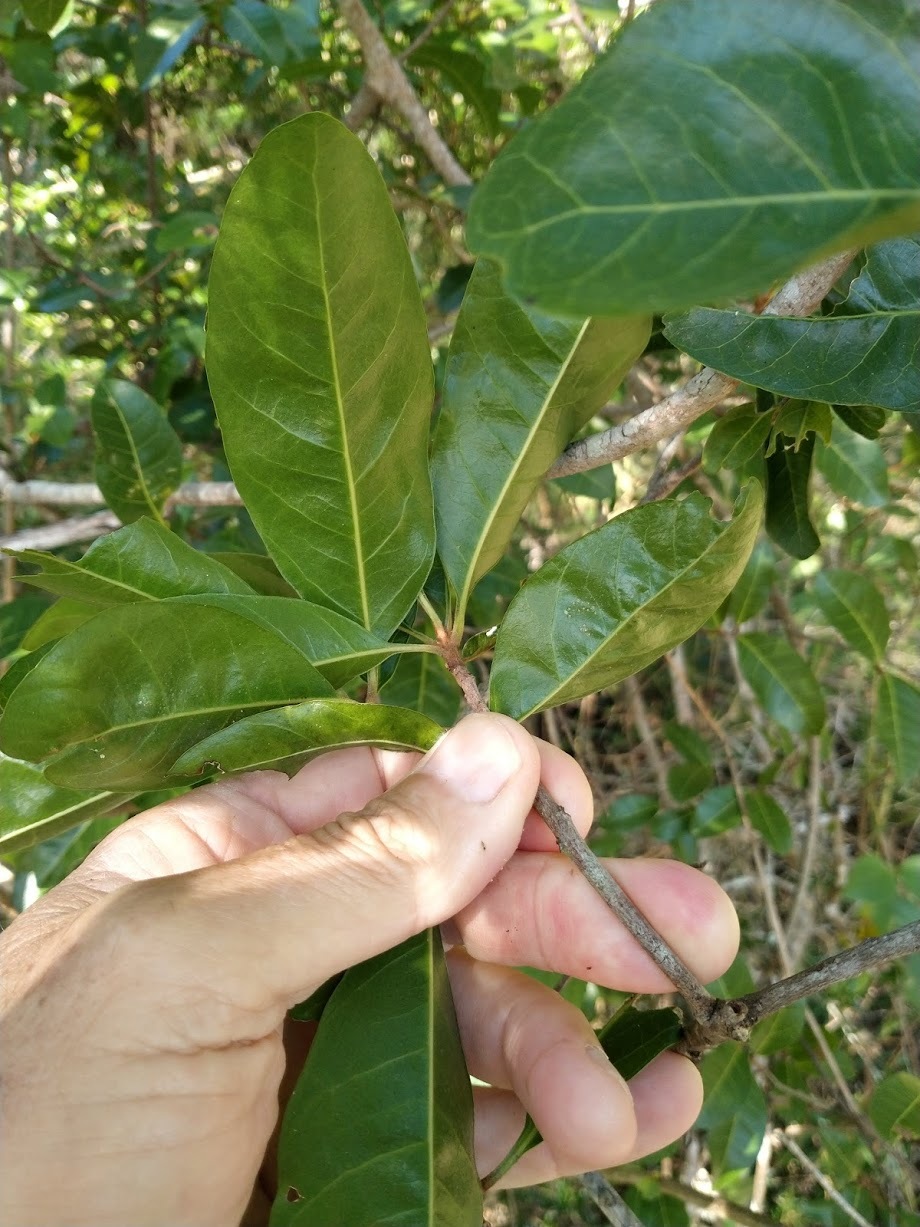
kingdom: Plantae
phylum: Tracheophyta
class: Magnoliopsida
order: Ericales
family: Sapotaceae
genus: Planchonella
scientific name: Planchonella pohlmaniana
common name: Yellow boxwood
